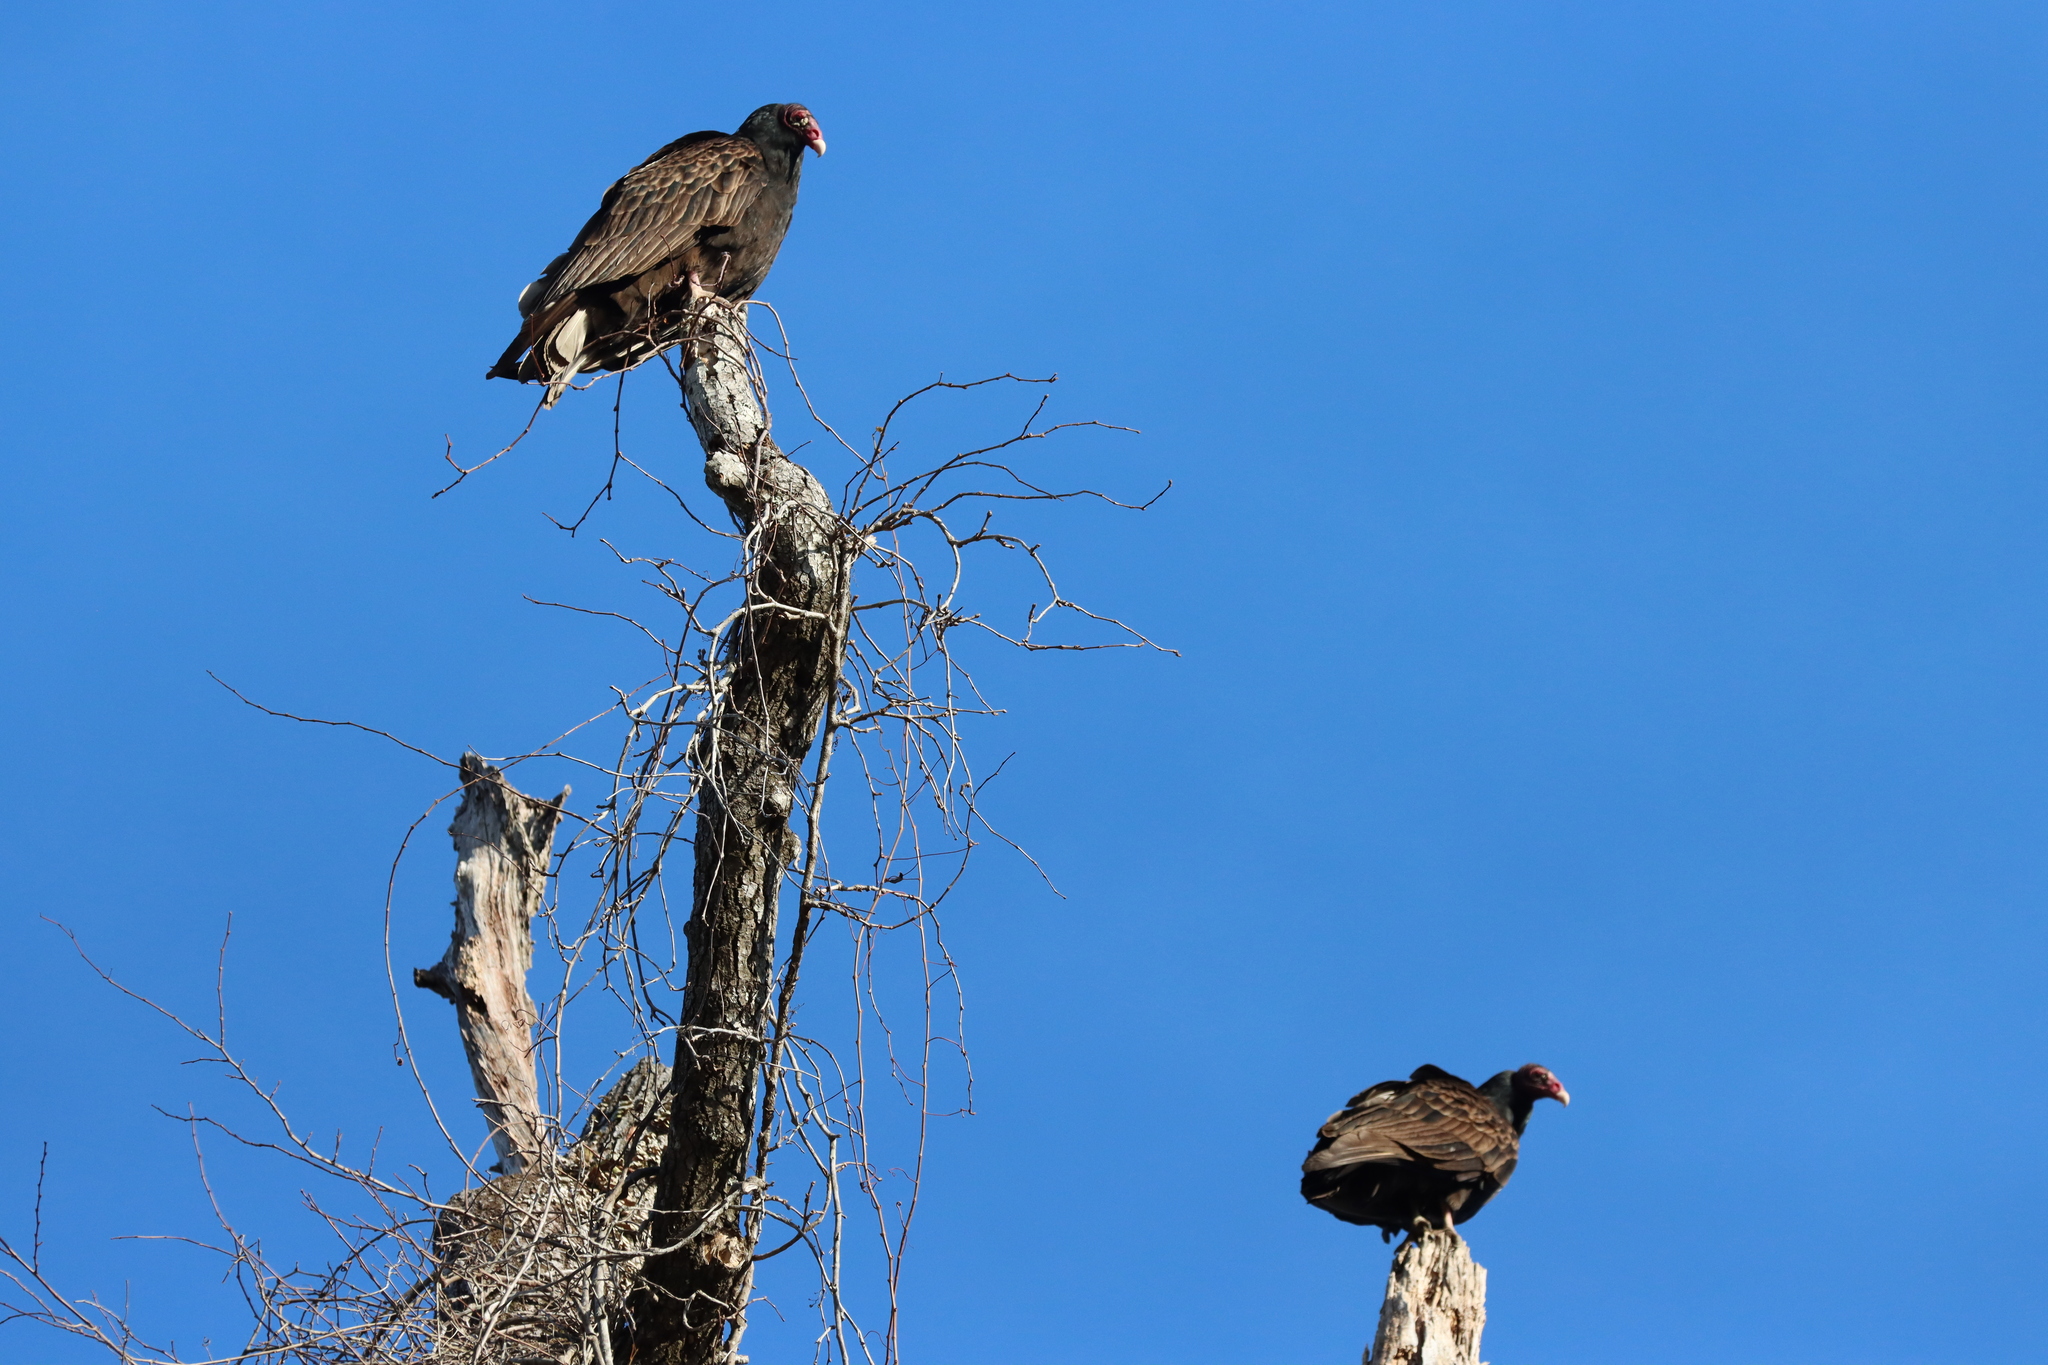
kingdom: Animalia
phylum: Chordata
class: Aves
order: Accipitriformes
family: Cathartidae
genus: Cathartes
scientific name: Cathartes aura
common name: Turkey vulture
